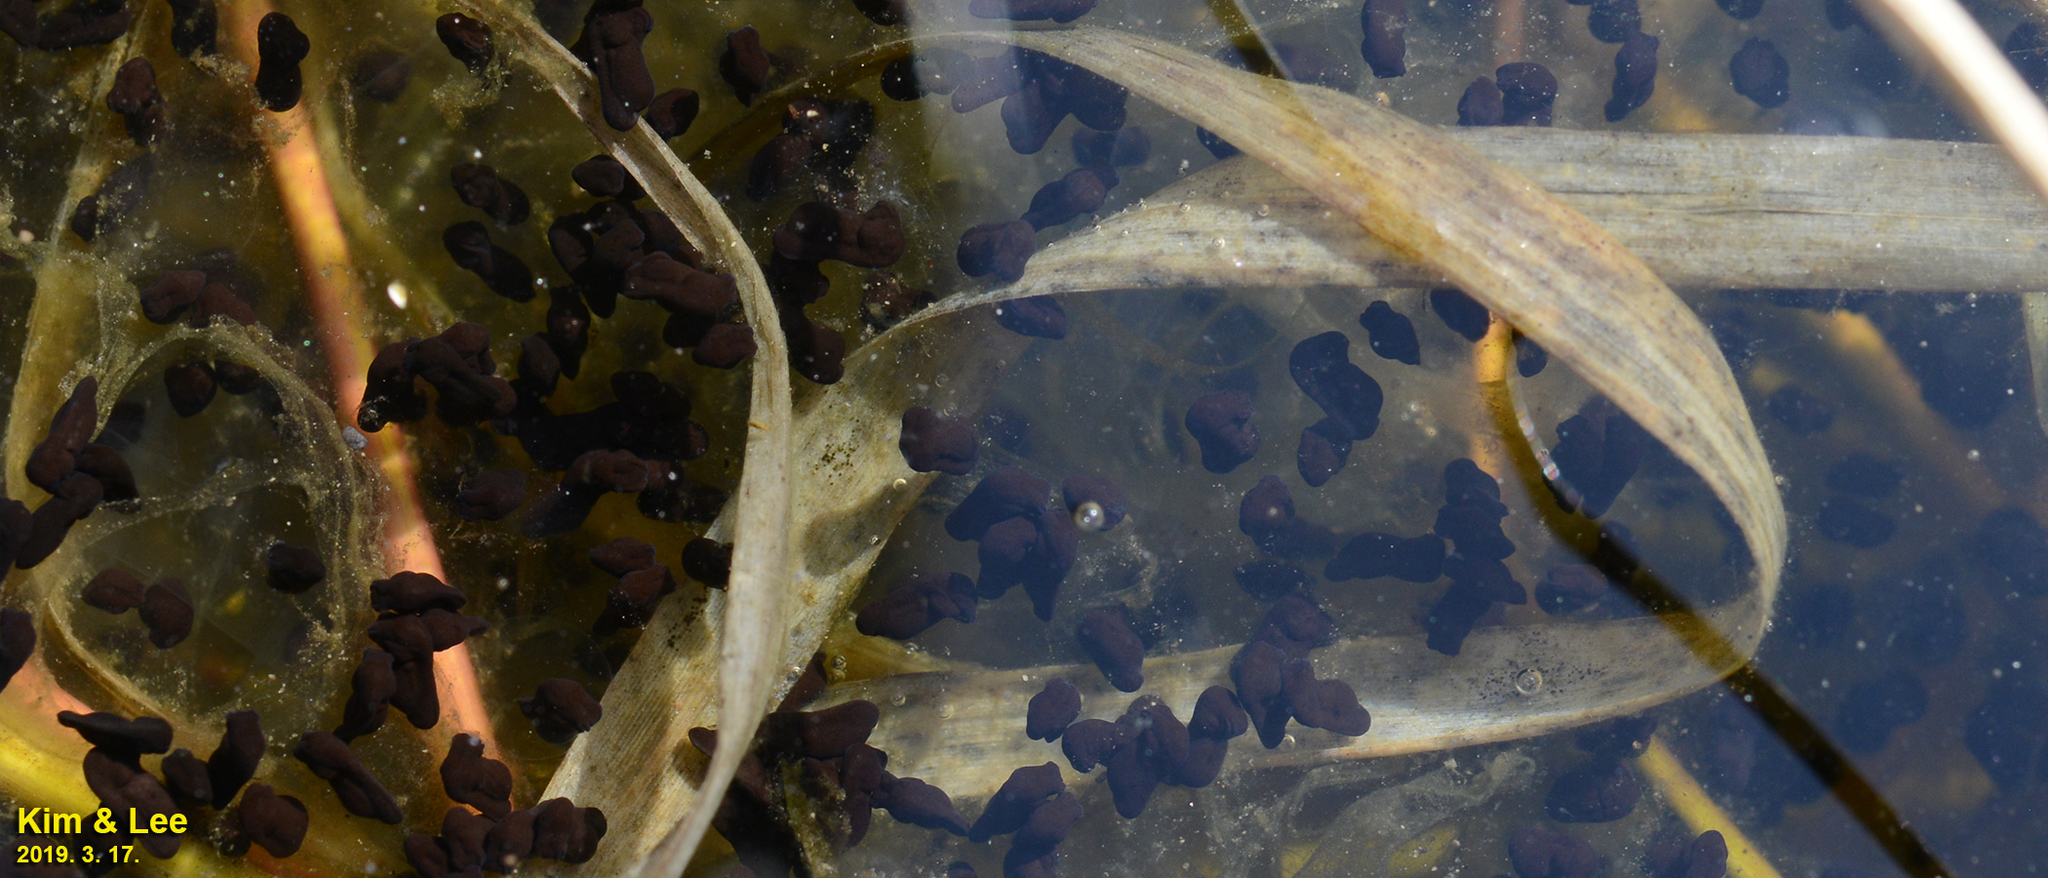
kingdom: Animalia
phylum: Chordata
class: Amphibia
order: Anura
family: Bufonidae
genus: Bufo
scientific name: Bufo gargarizans
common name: Asiatic toad
